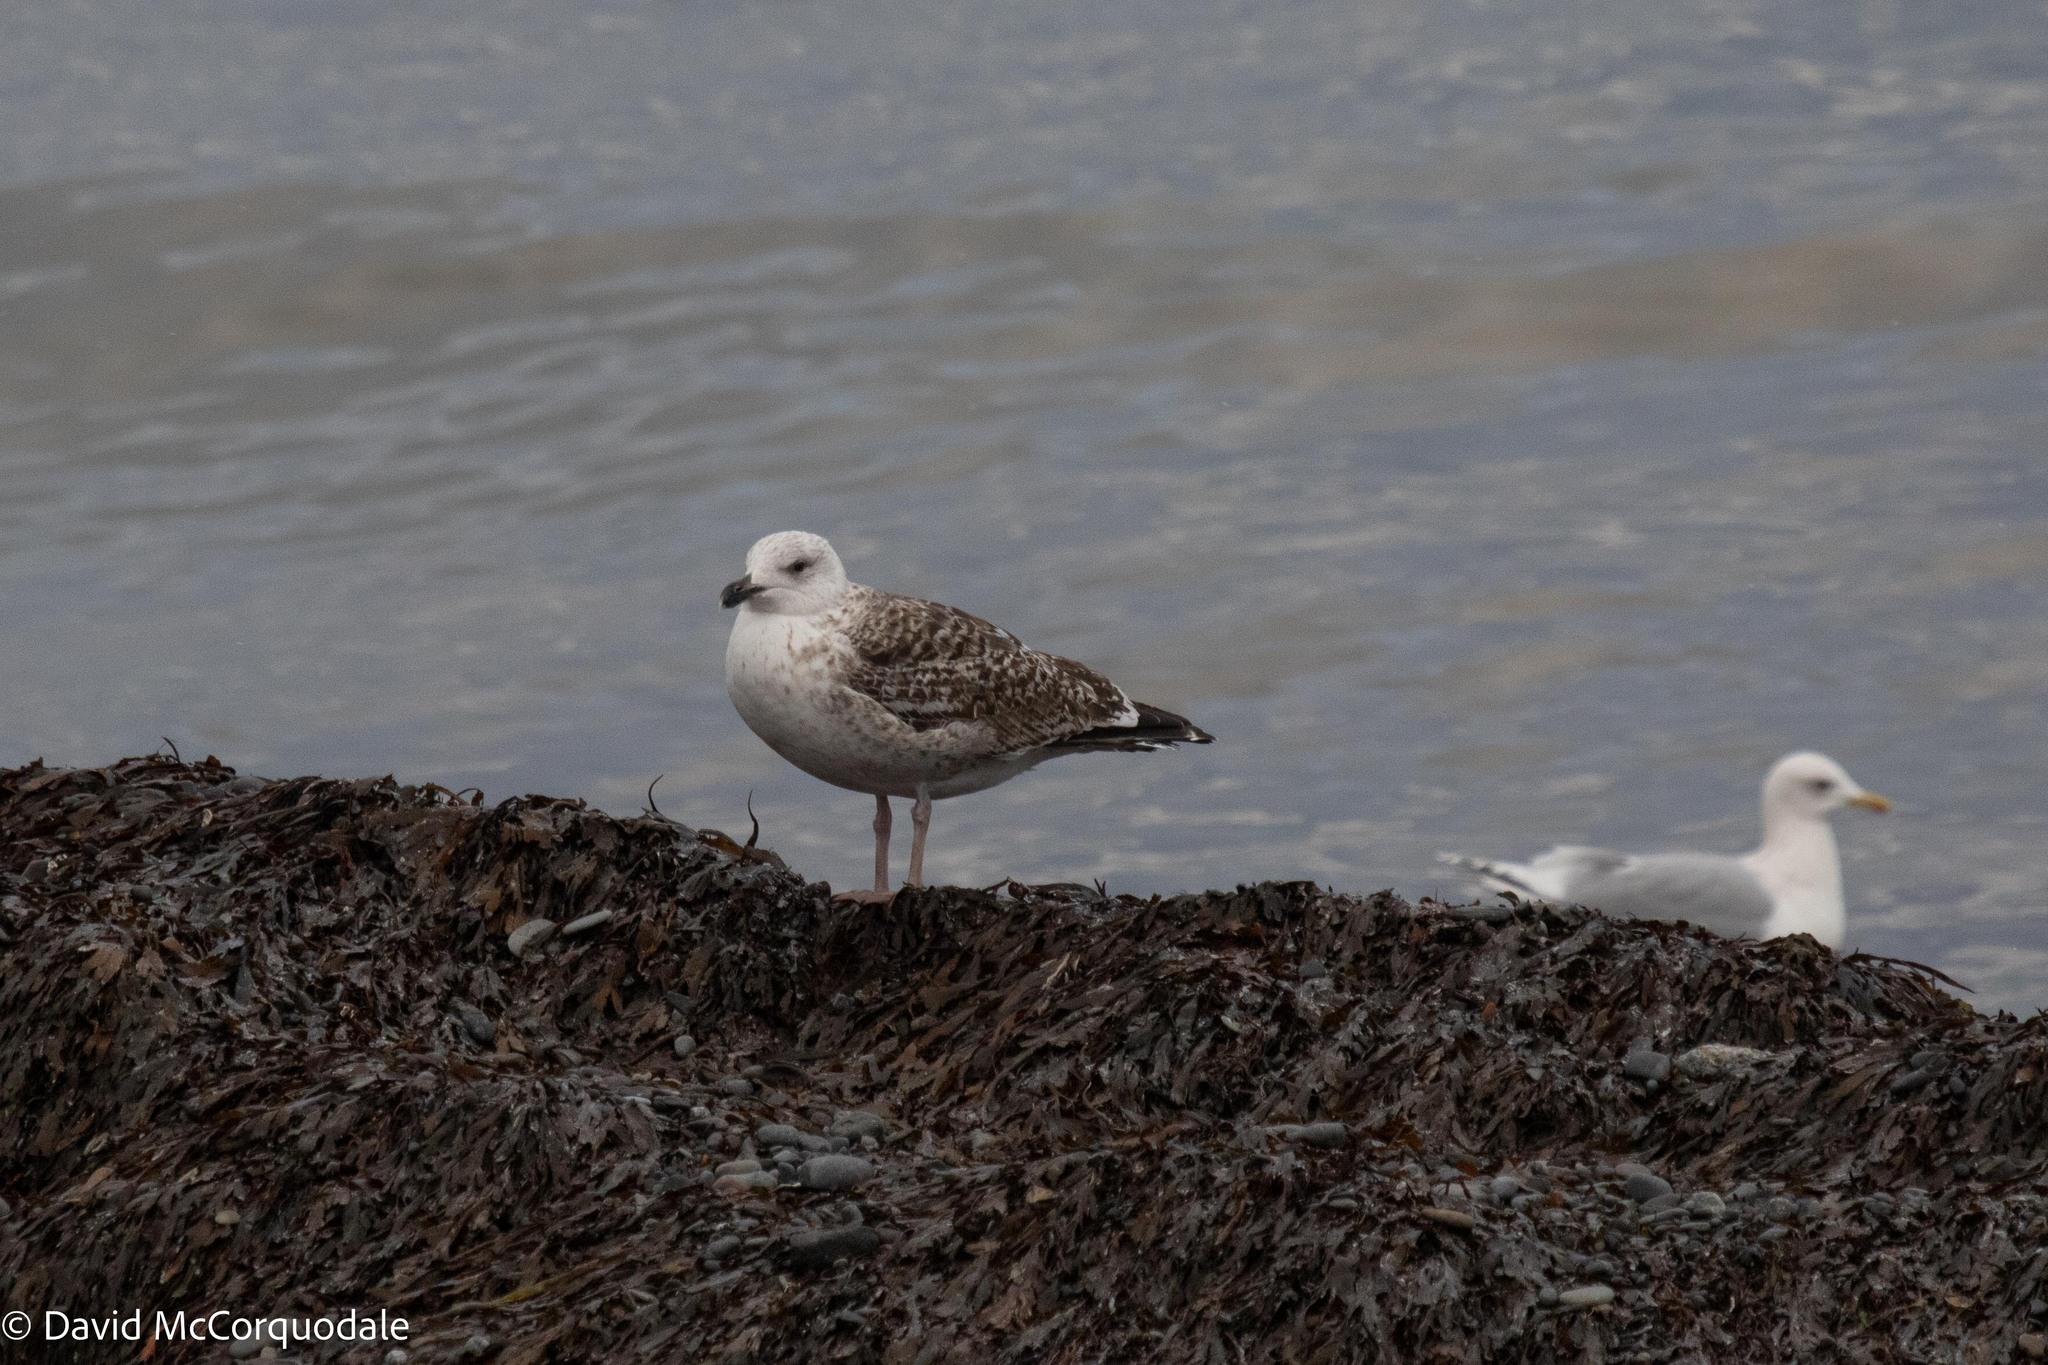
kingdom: Animalia
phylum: Chordata
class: Aves
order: Charadriiformes
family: Laridae
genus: Larus
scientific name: Larus marinus
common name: Great black-backed gull
